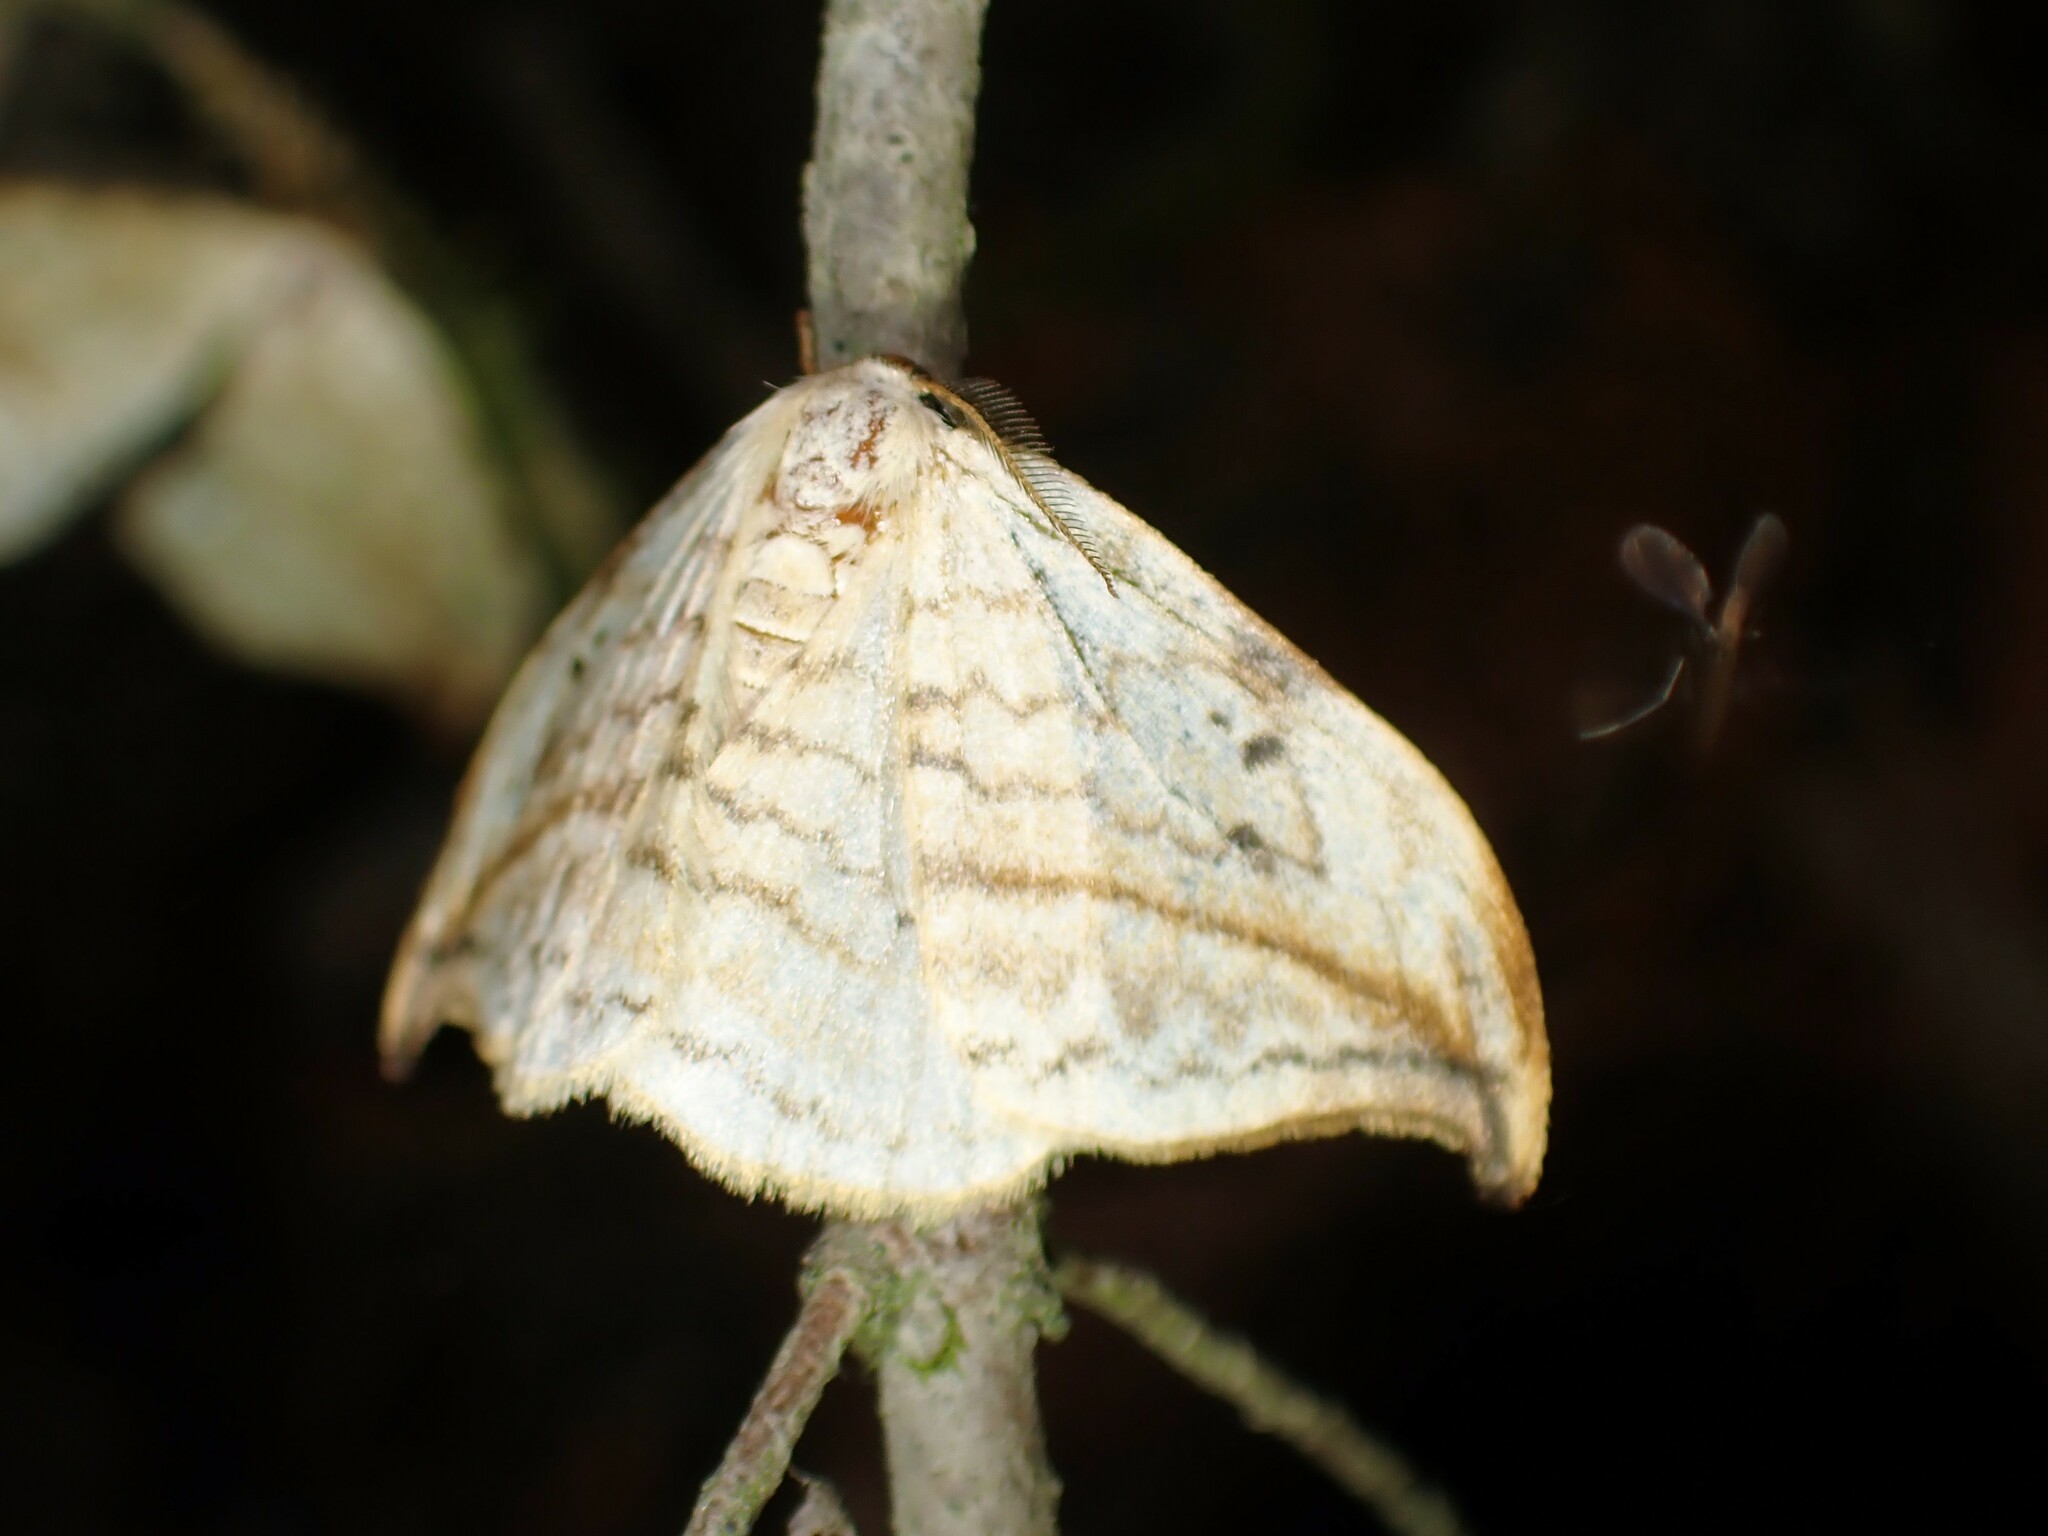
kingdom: Animalia
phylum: Arthropoda
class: Insecta
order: Lepidoptera
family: Drepanidae
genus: Drepana
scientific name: Drepana arcuata
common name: Arched hooktip moth
